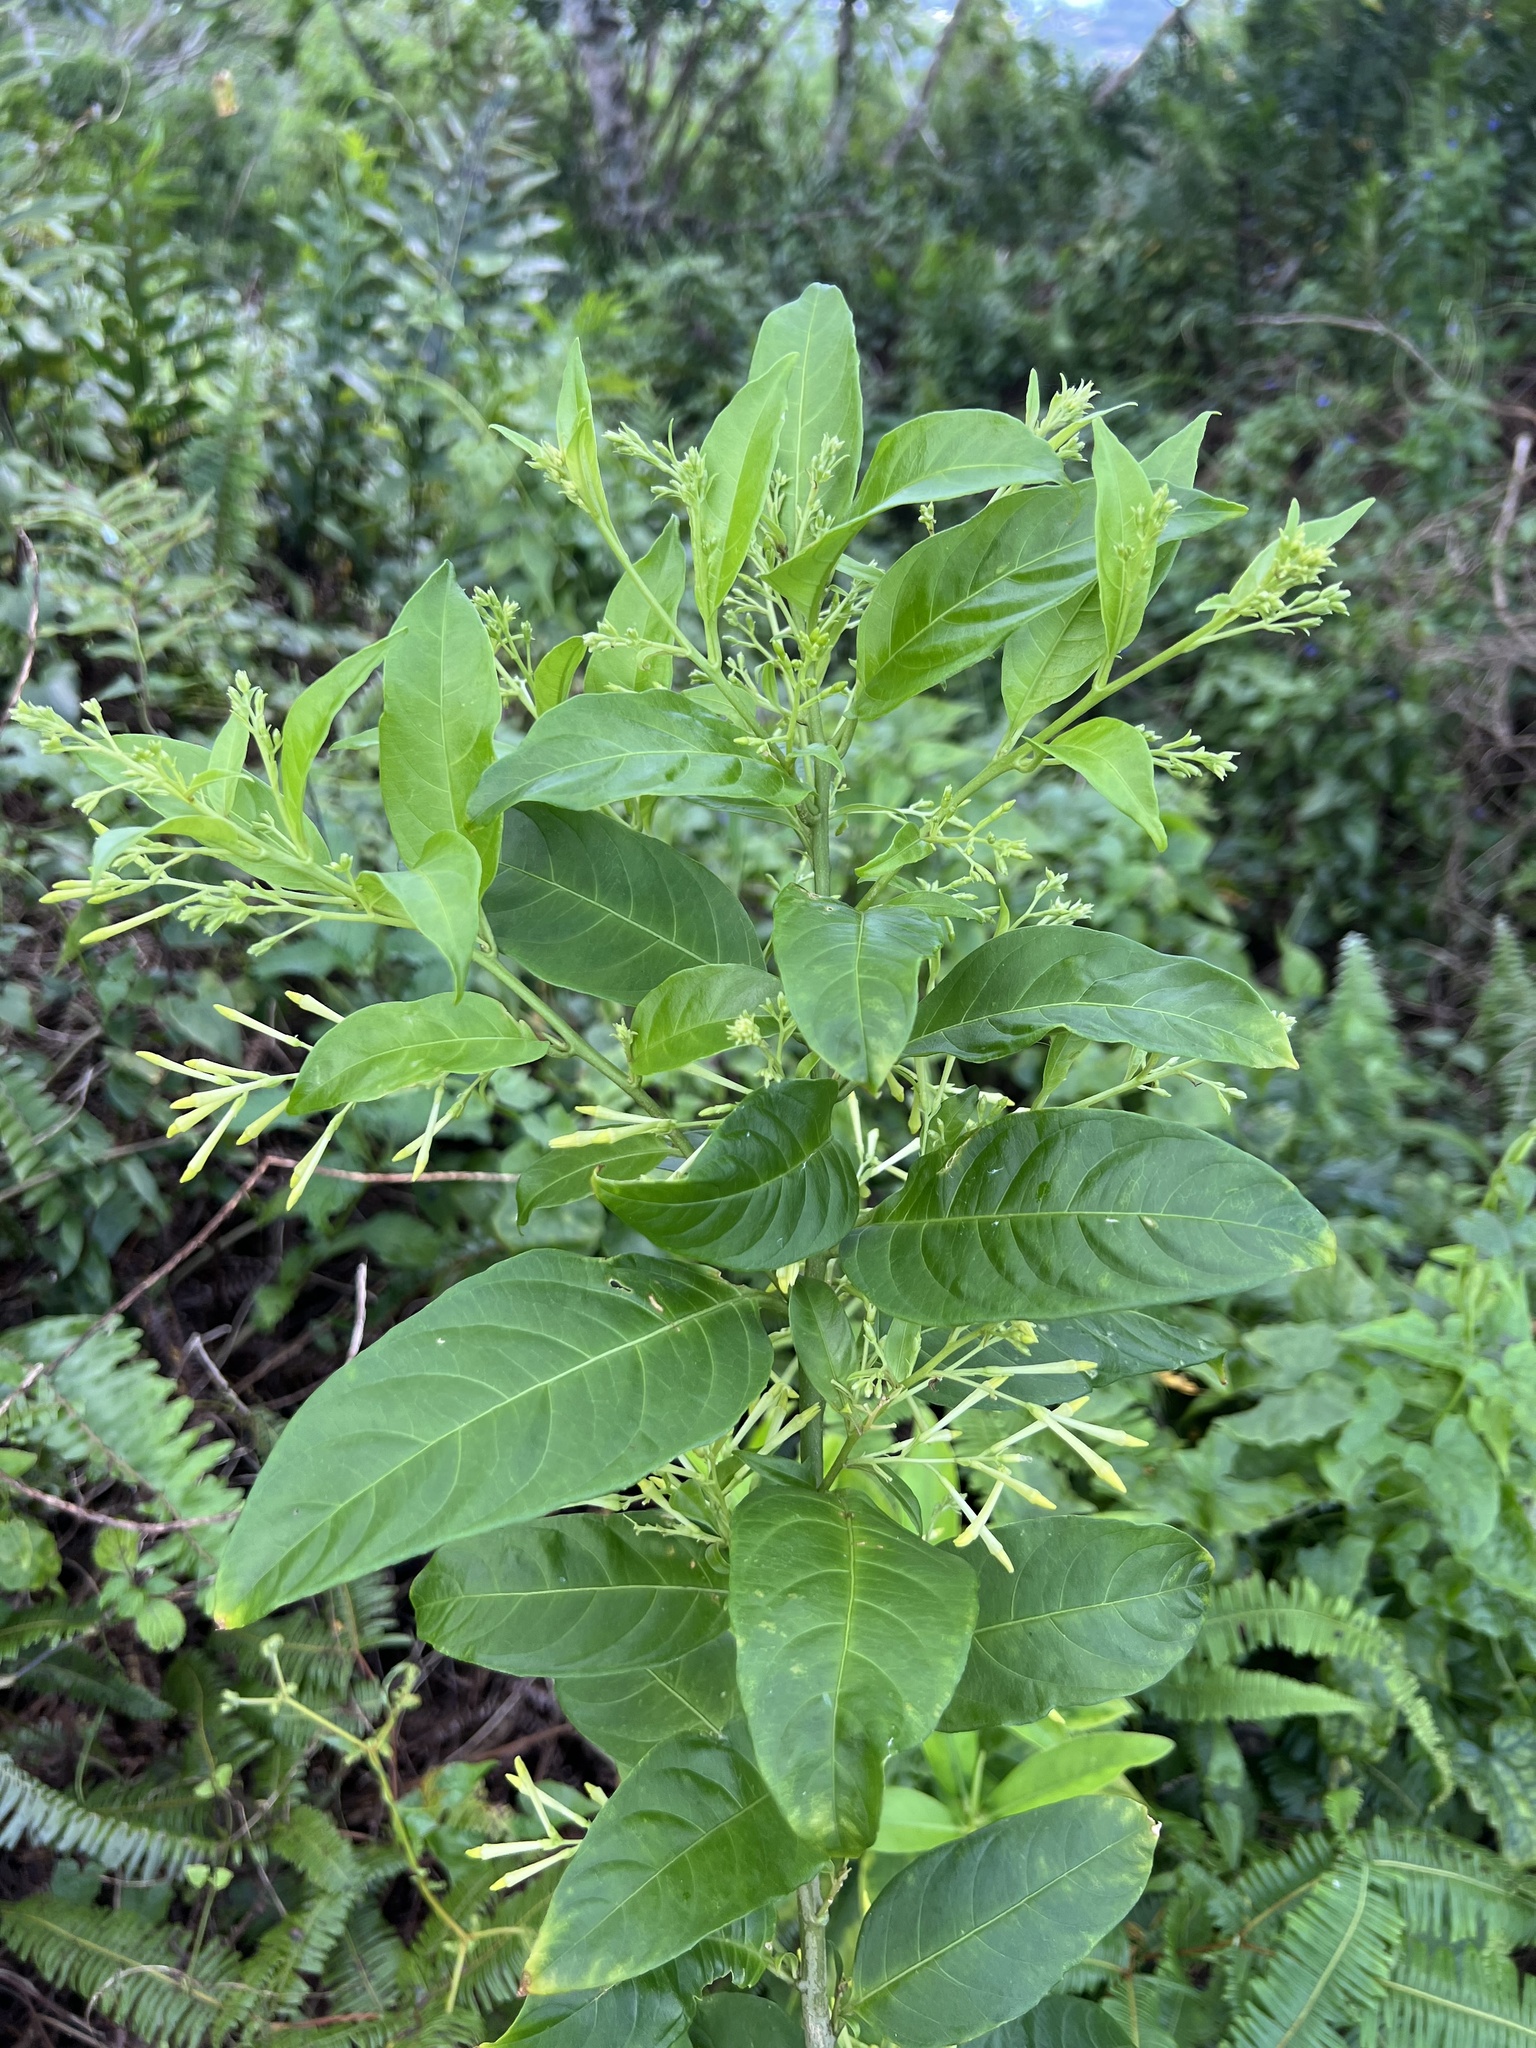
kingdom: Plantae
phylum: Tracheophyta
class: Magnoliopsida
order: Solanales
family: Solanaceae
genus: Cestrum
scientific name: Cestrum nocturnum
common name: Night jessamine
